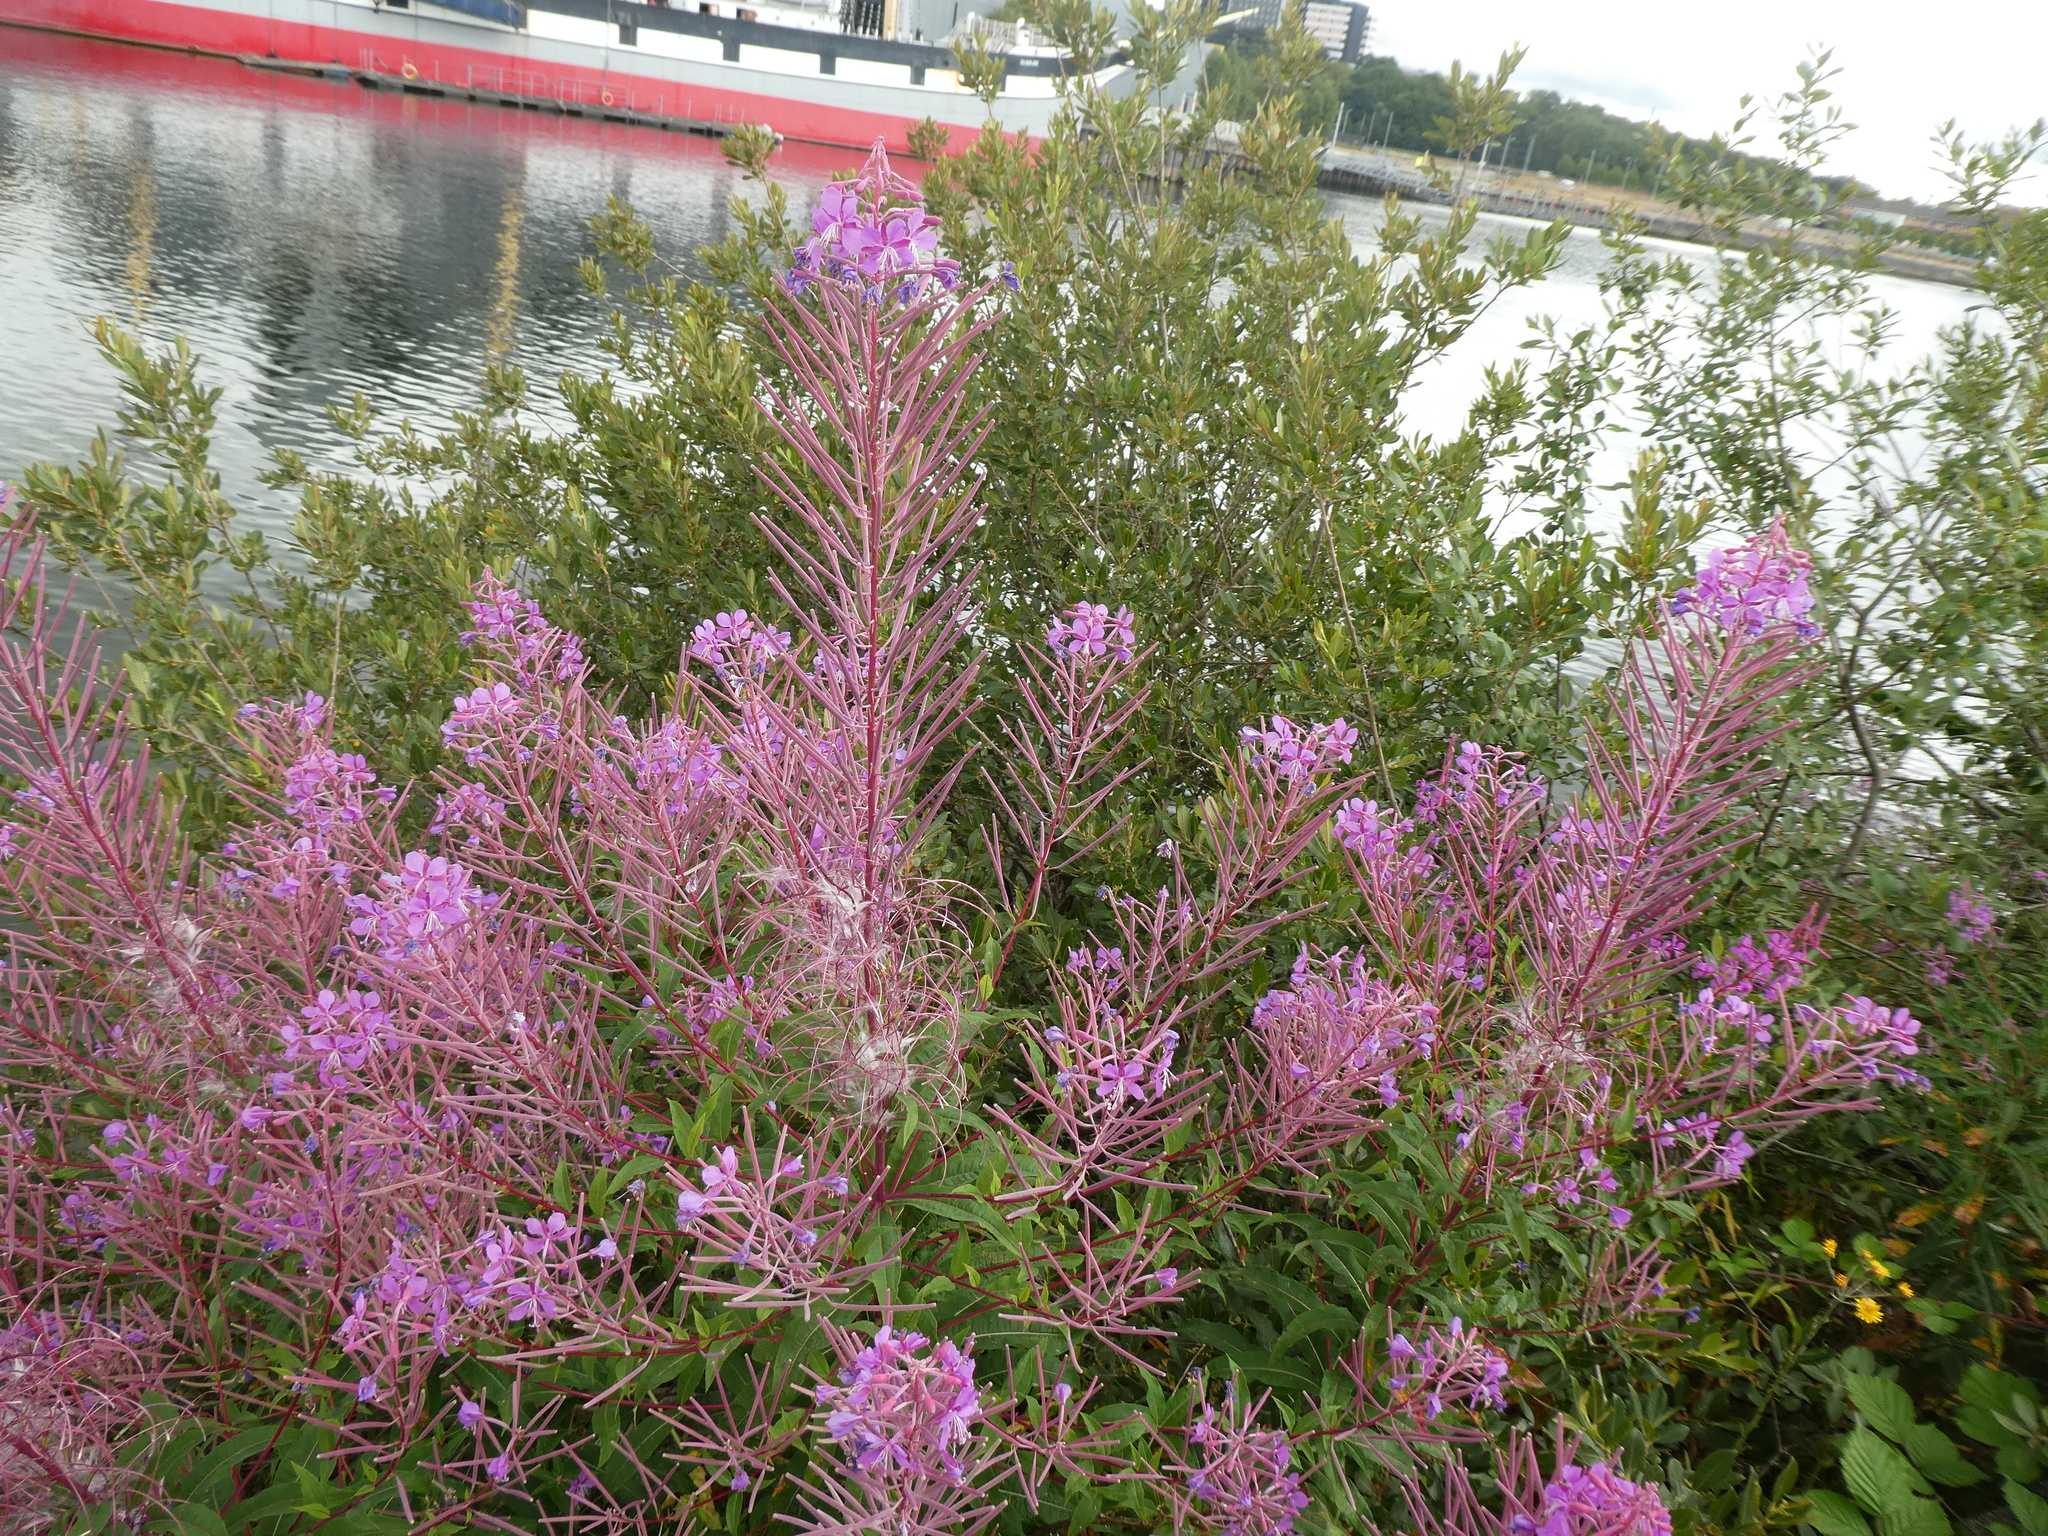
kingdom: Plantae
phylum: Tracheophyta
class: Magnoliopsida
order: Myrtales
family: Onagraceae
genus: Chamaenerion
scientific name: Chamaenerion angustifolium
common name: Fireweed
